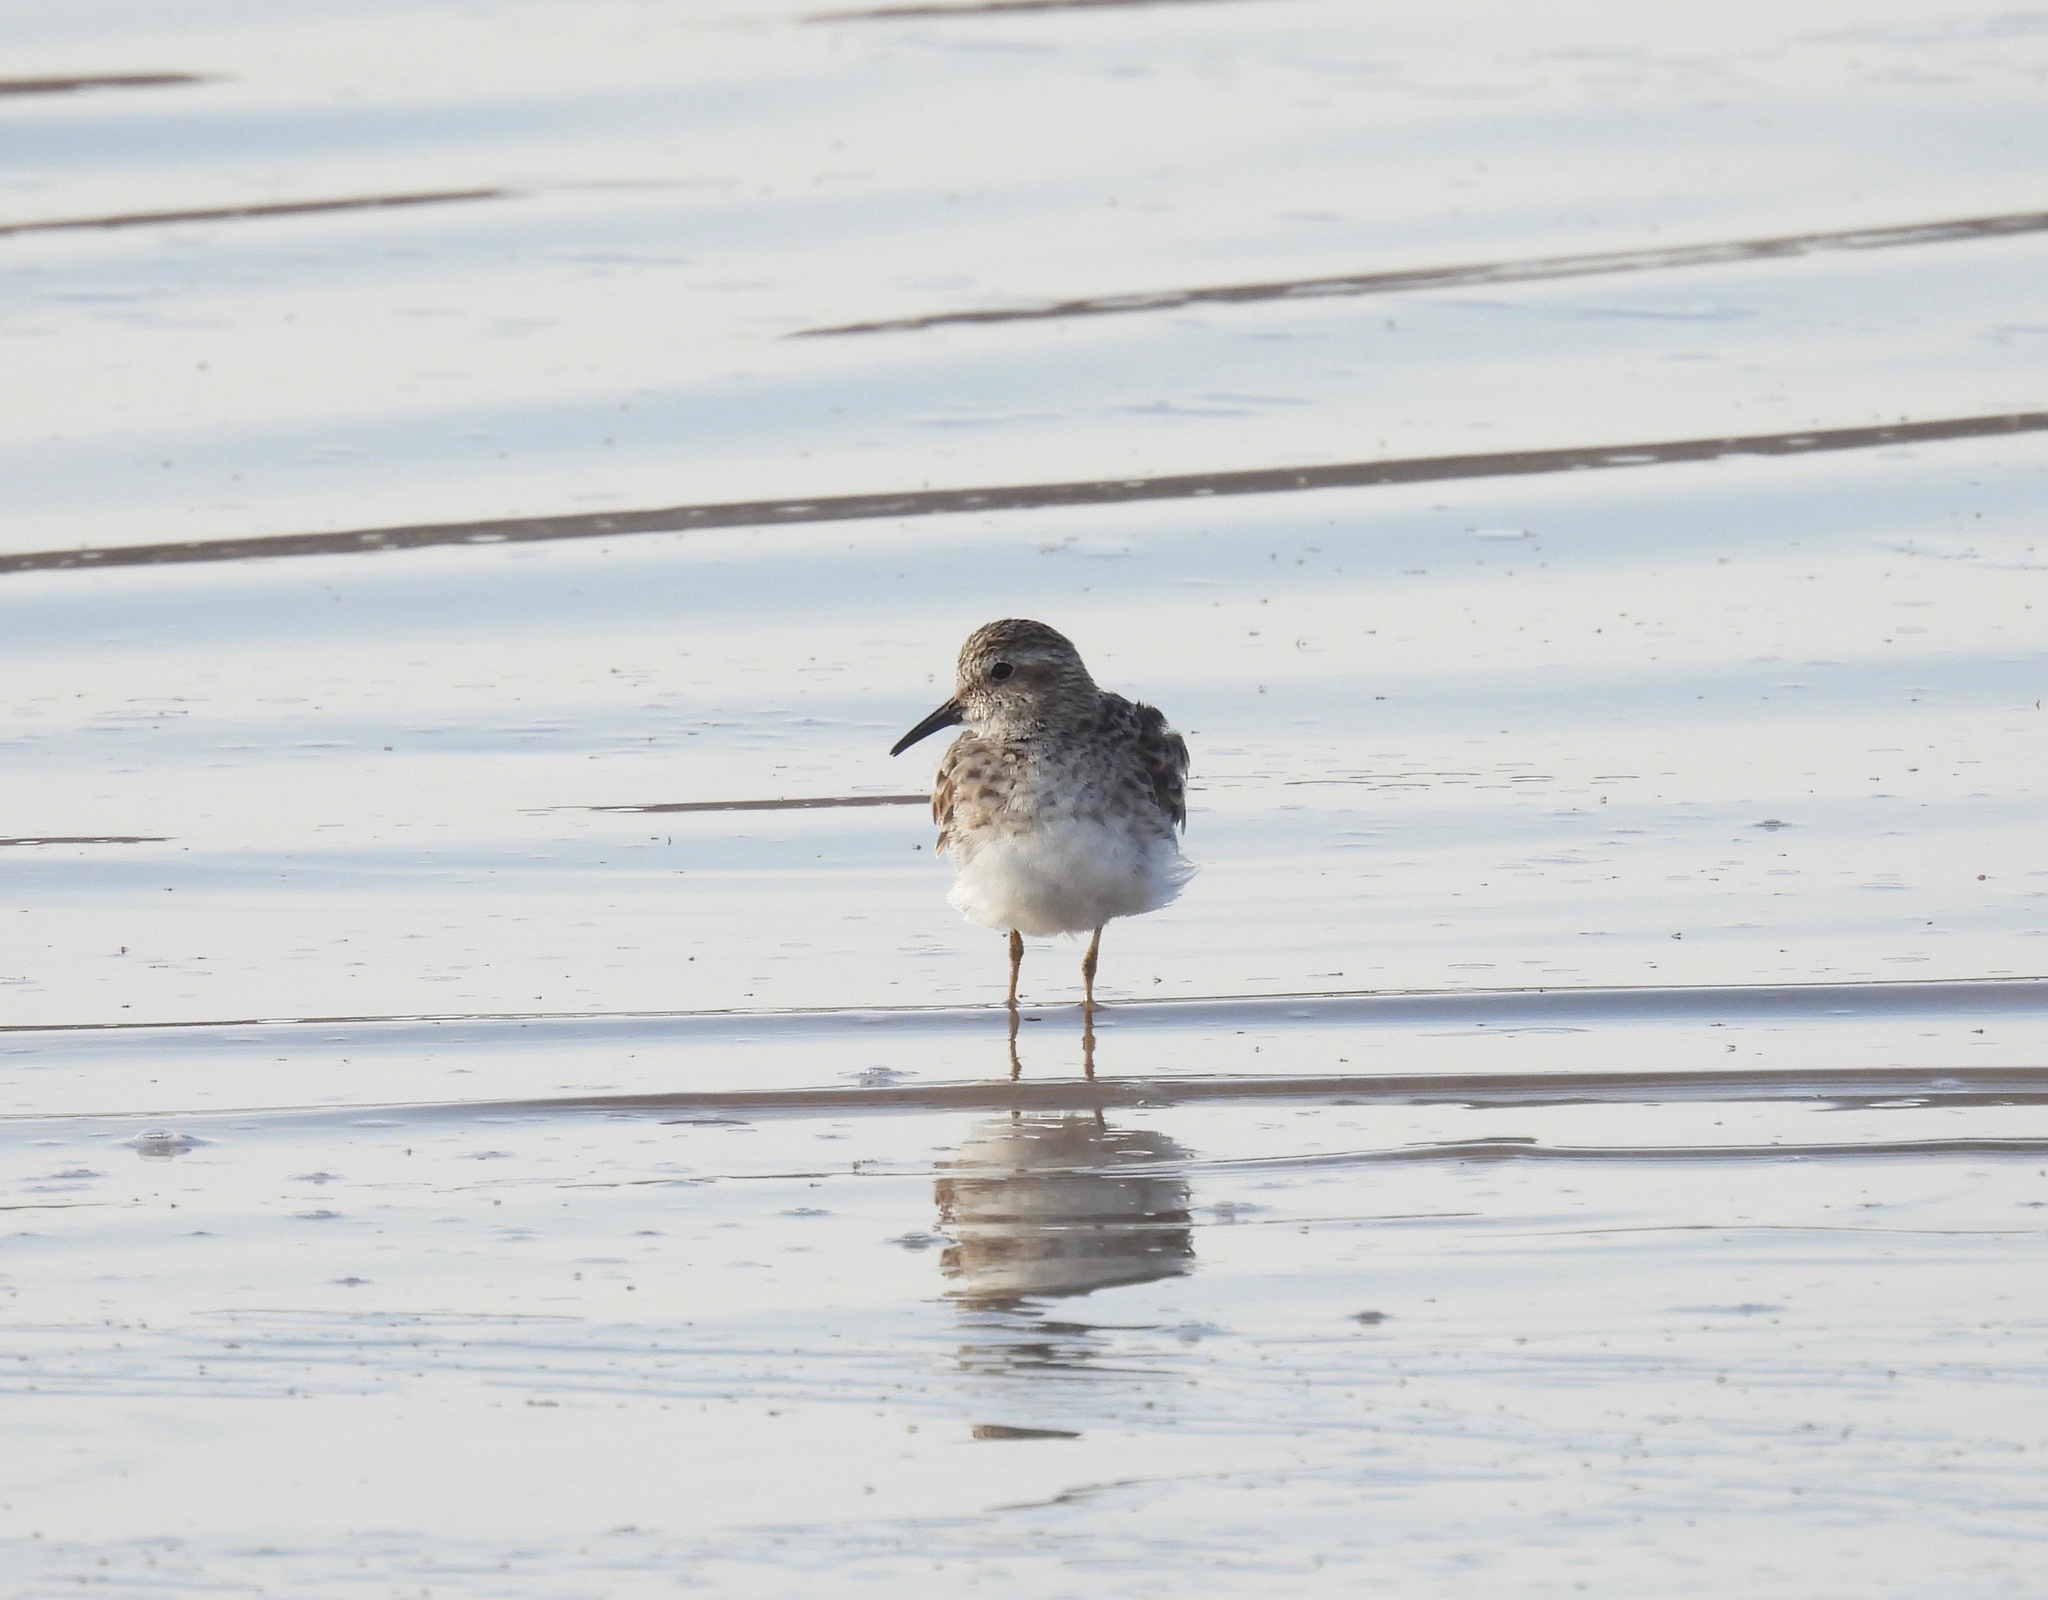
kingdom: Animalia
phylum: Chordata
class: Aves
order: Charadriiformes
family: Scolopacidae
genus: Calidris
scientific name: Calidris minutilla
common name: Least sandpiper
